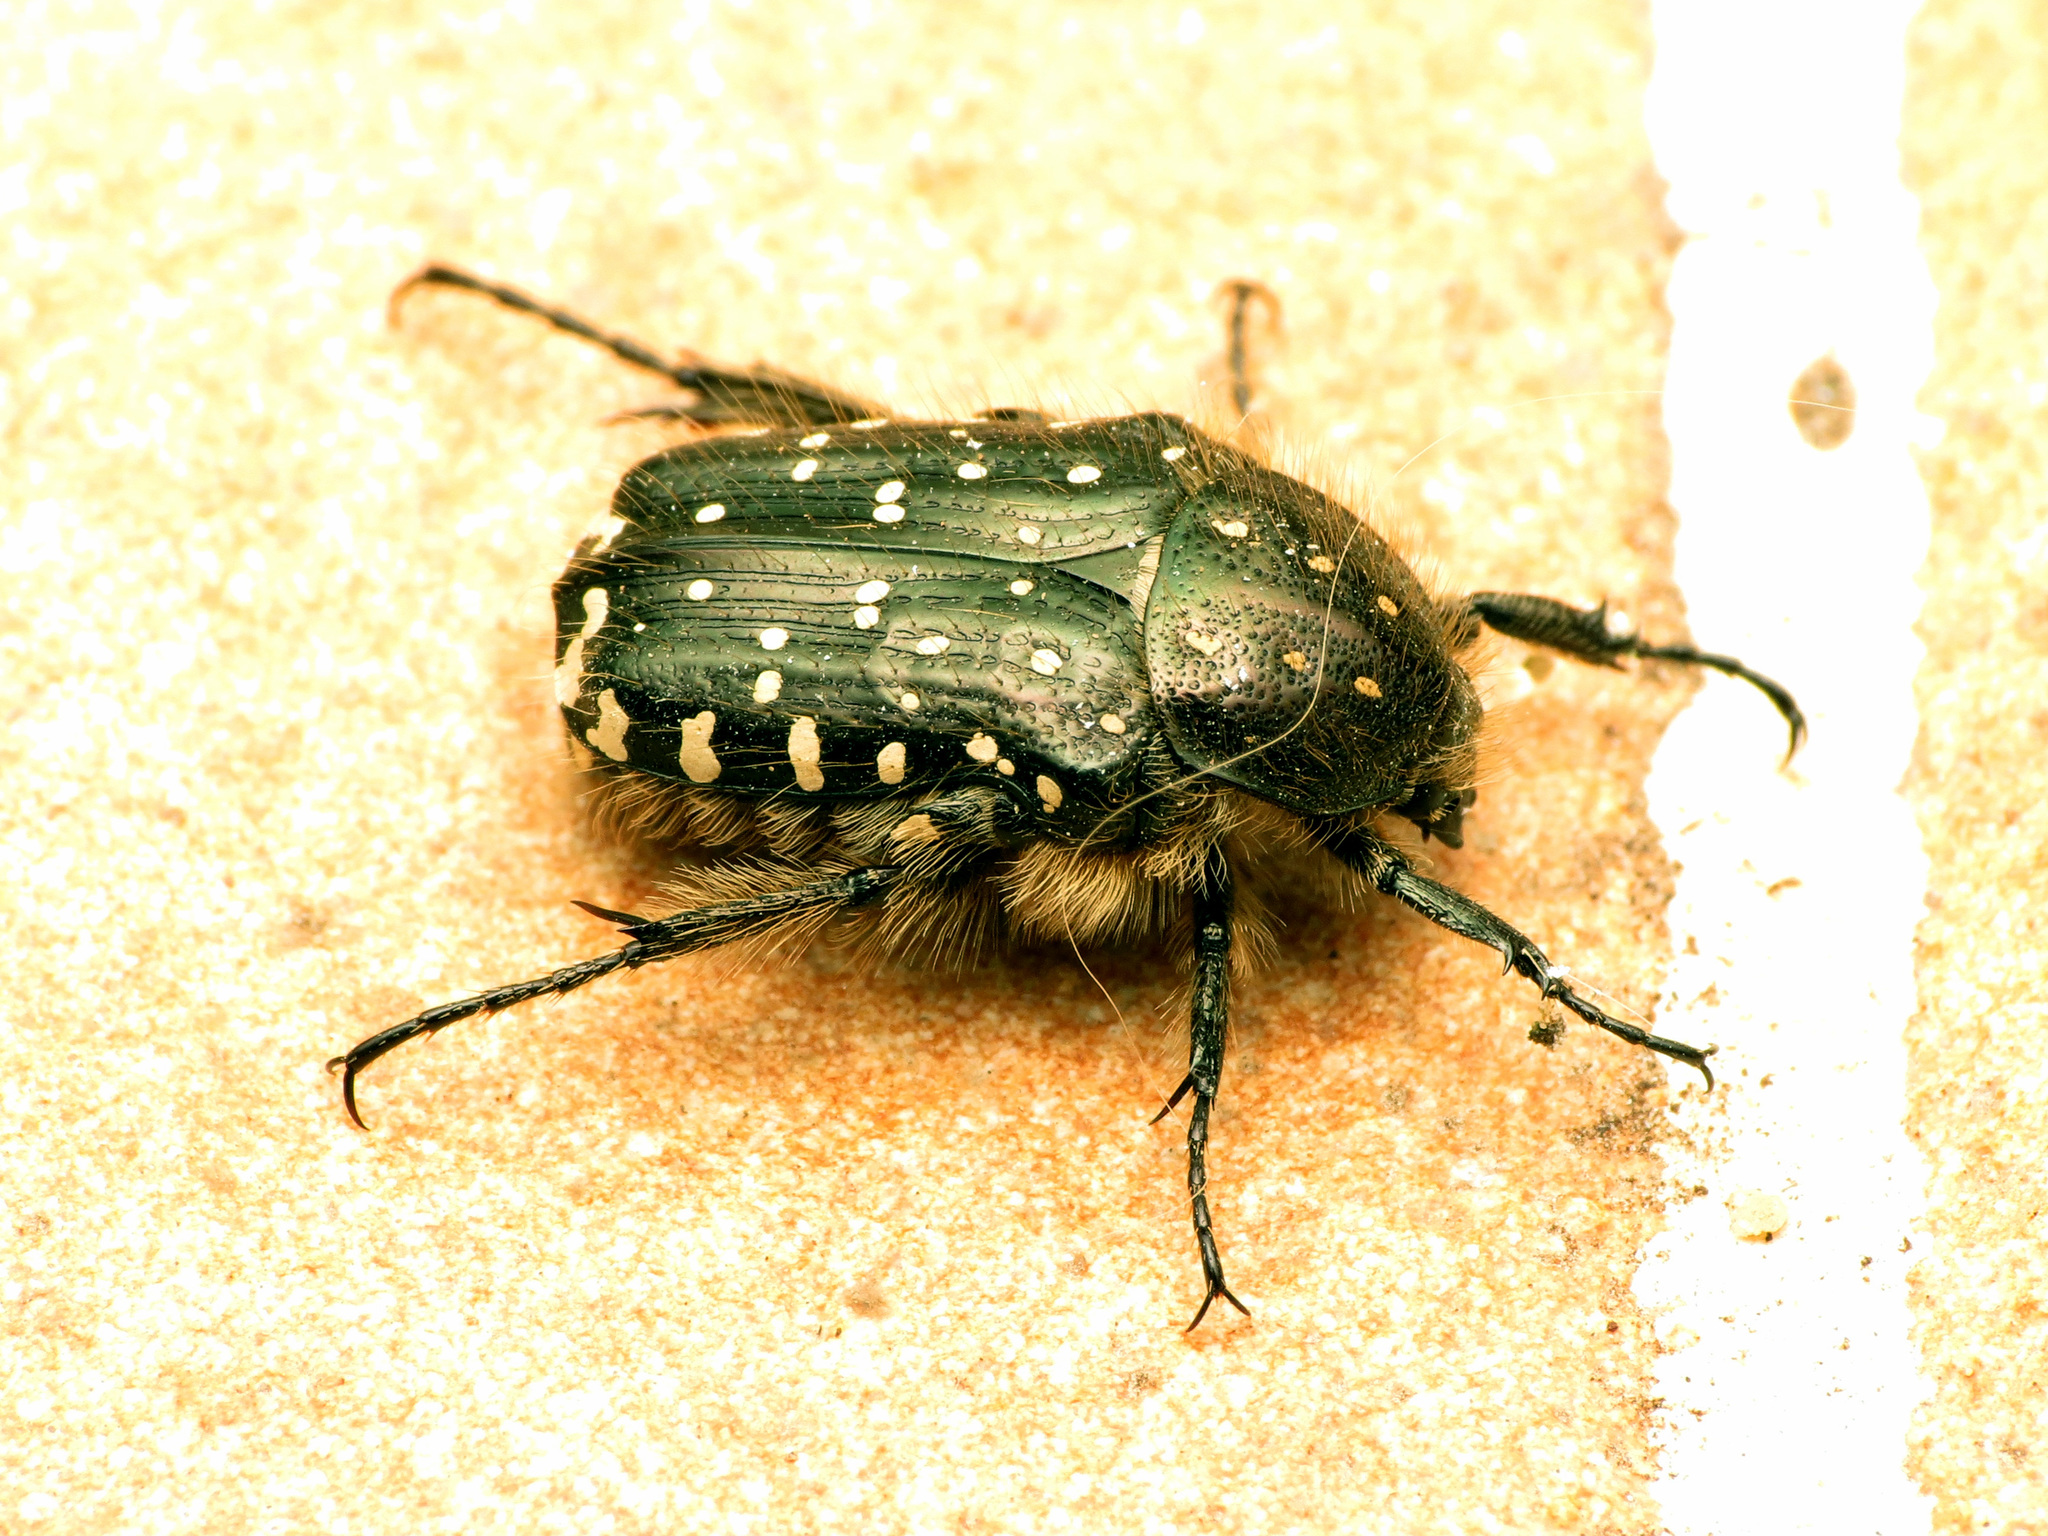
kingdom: Animalia
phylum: Arthropoda
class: Insecta
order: Coleoptera
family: Scarabaeidae
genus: Oxythyrea
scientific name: Oxythyrea funesta
